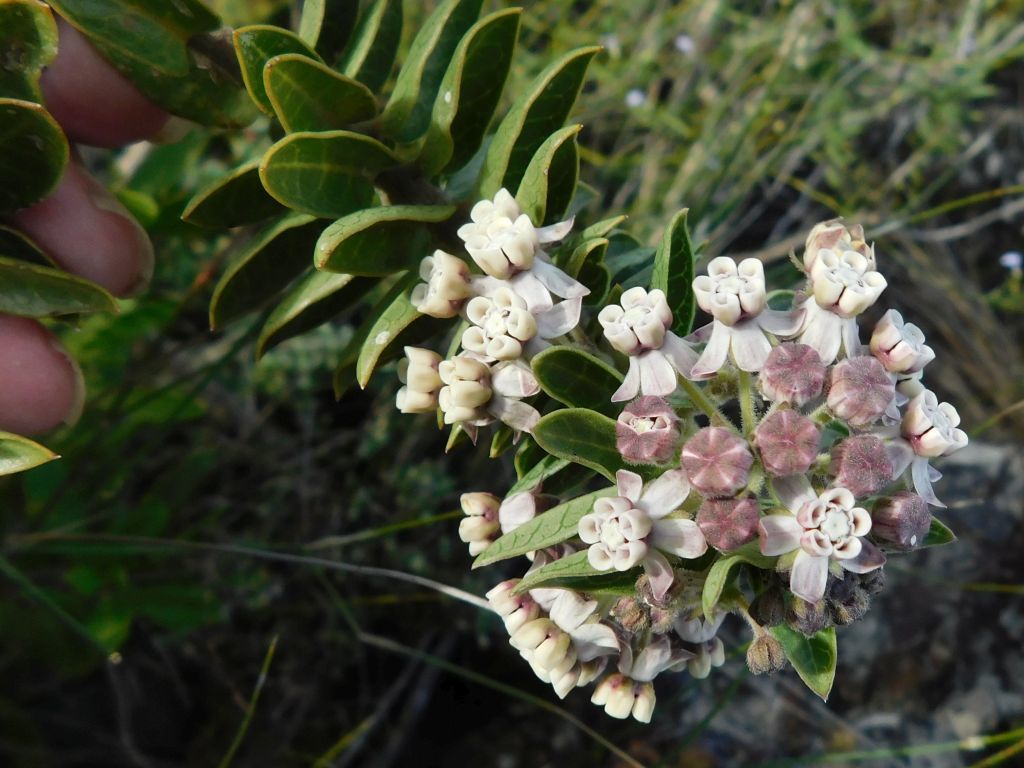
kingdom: Plantae
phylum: Tracheophyta
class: Magnoliopsida
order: Gentianales
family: Apocynaceae
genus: Gomphocarpus
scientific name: Gomphocarpus cancellatus
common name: Wild cotton
